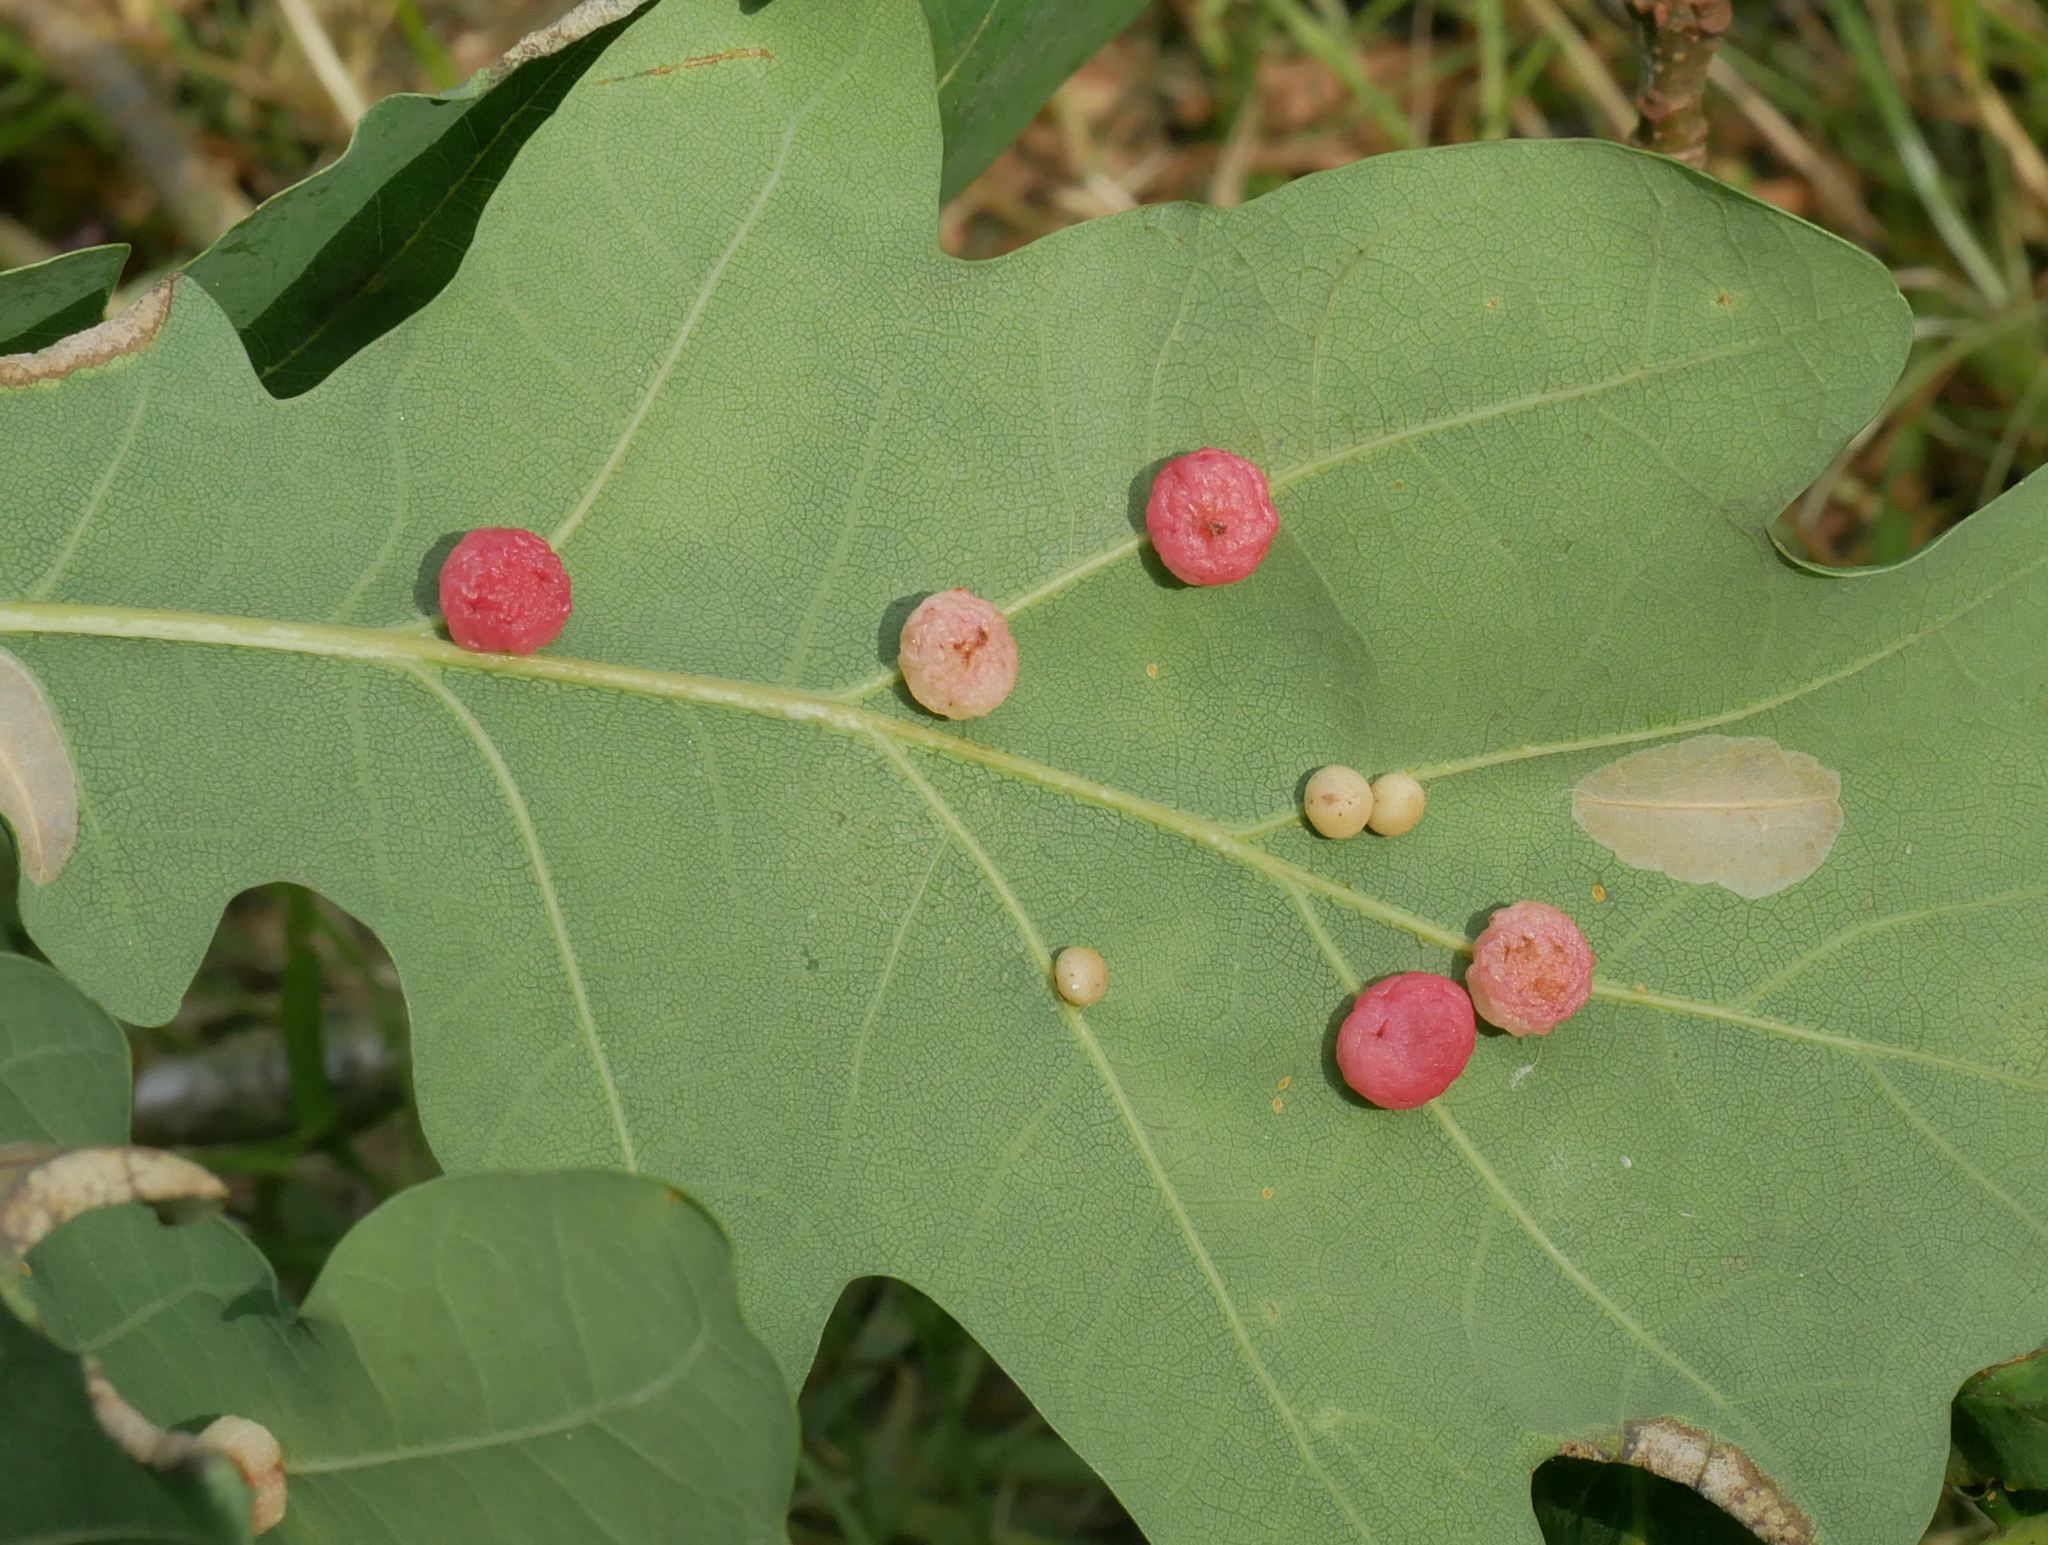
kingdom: Animalia
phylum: Arthropoda
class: Insecta
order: Hymenoptera
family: Cynipidae
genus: Cynips
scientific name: Cynips divisa
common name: Red currant gall
